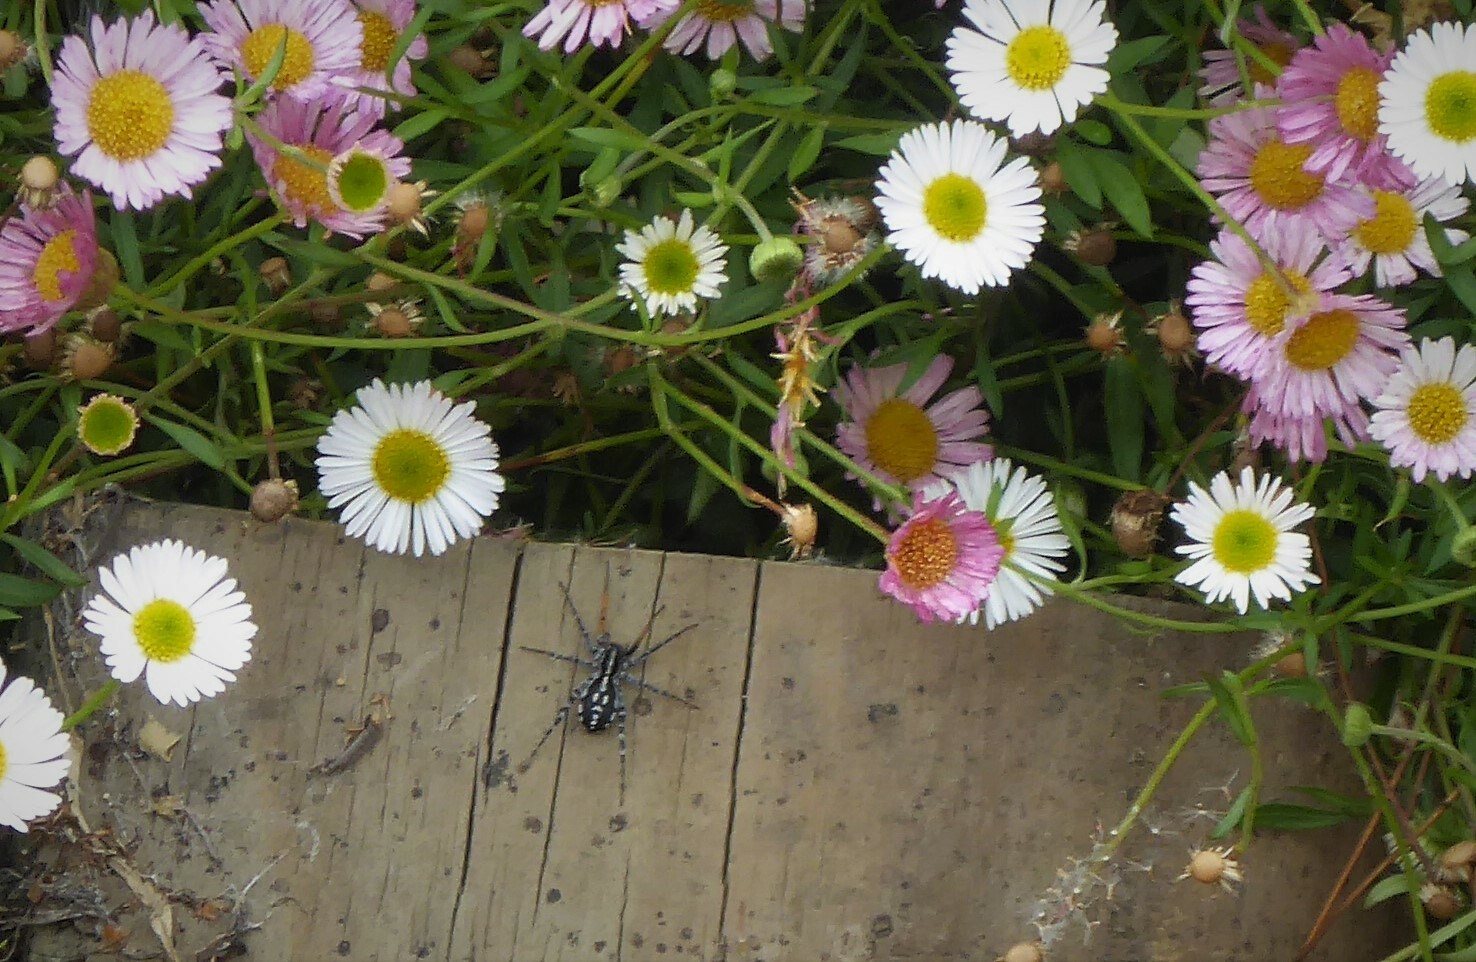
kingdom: Animalia
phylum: Arthropoda
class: Arachnida
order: Araneae
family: Corinnidae
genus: Nyssus
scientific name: Nyssus coloripes
